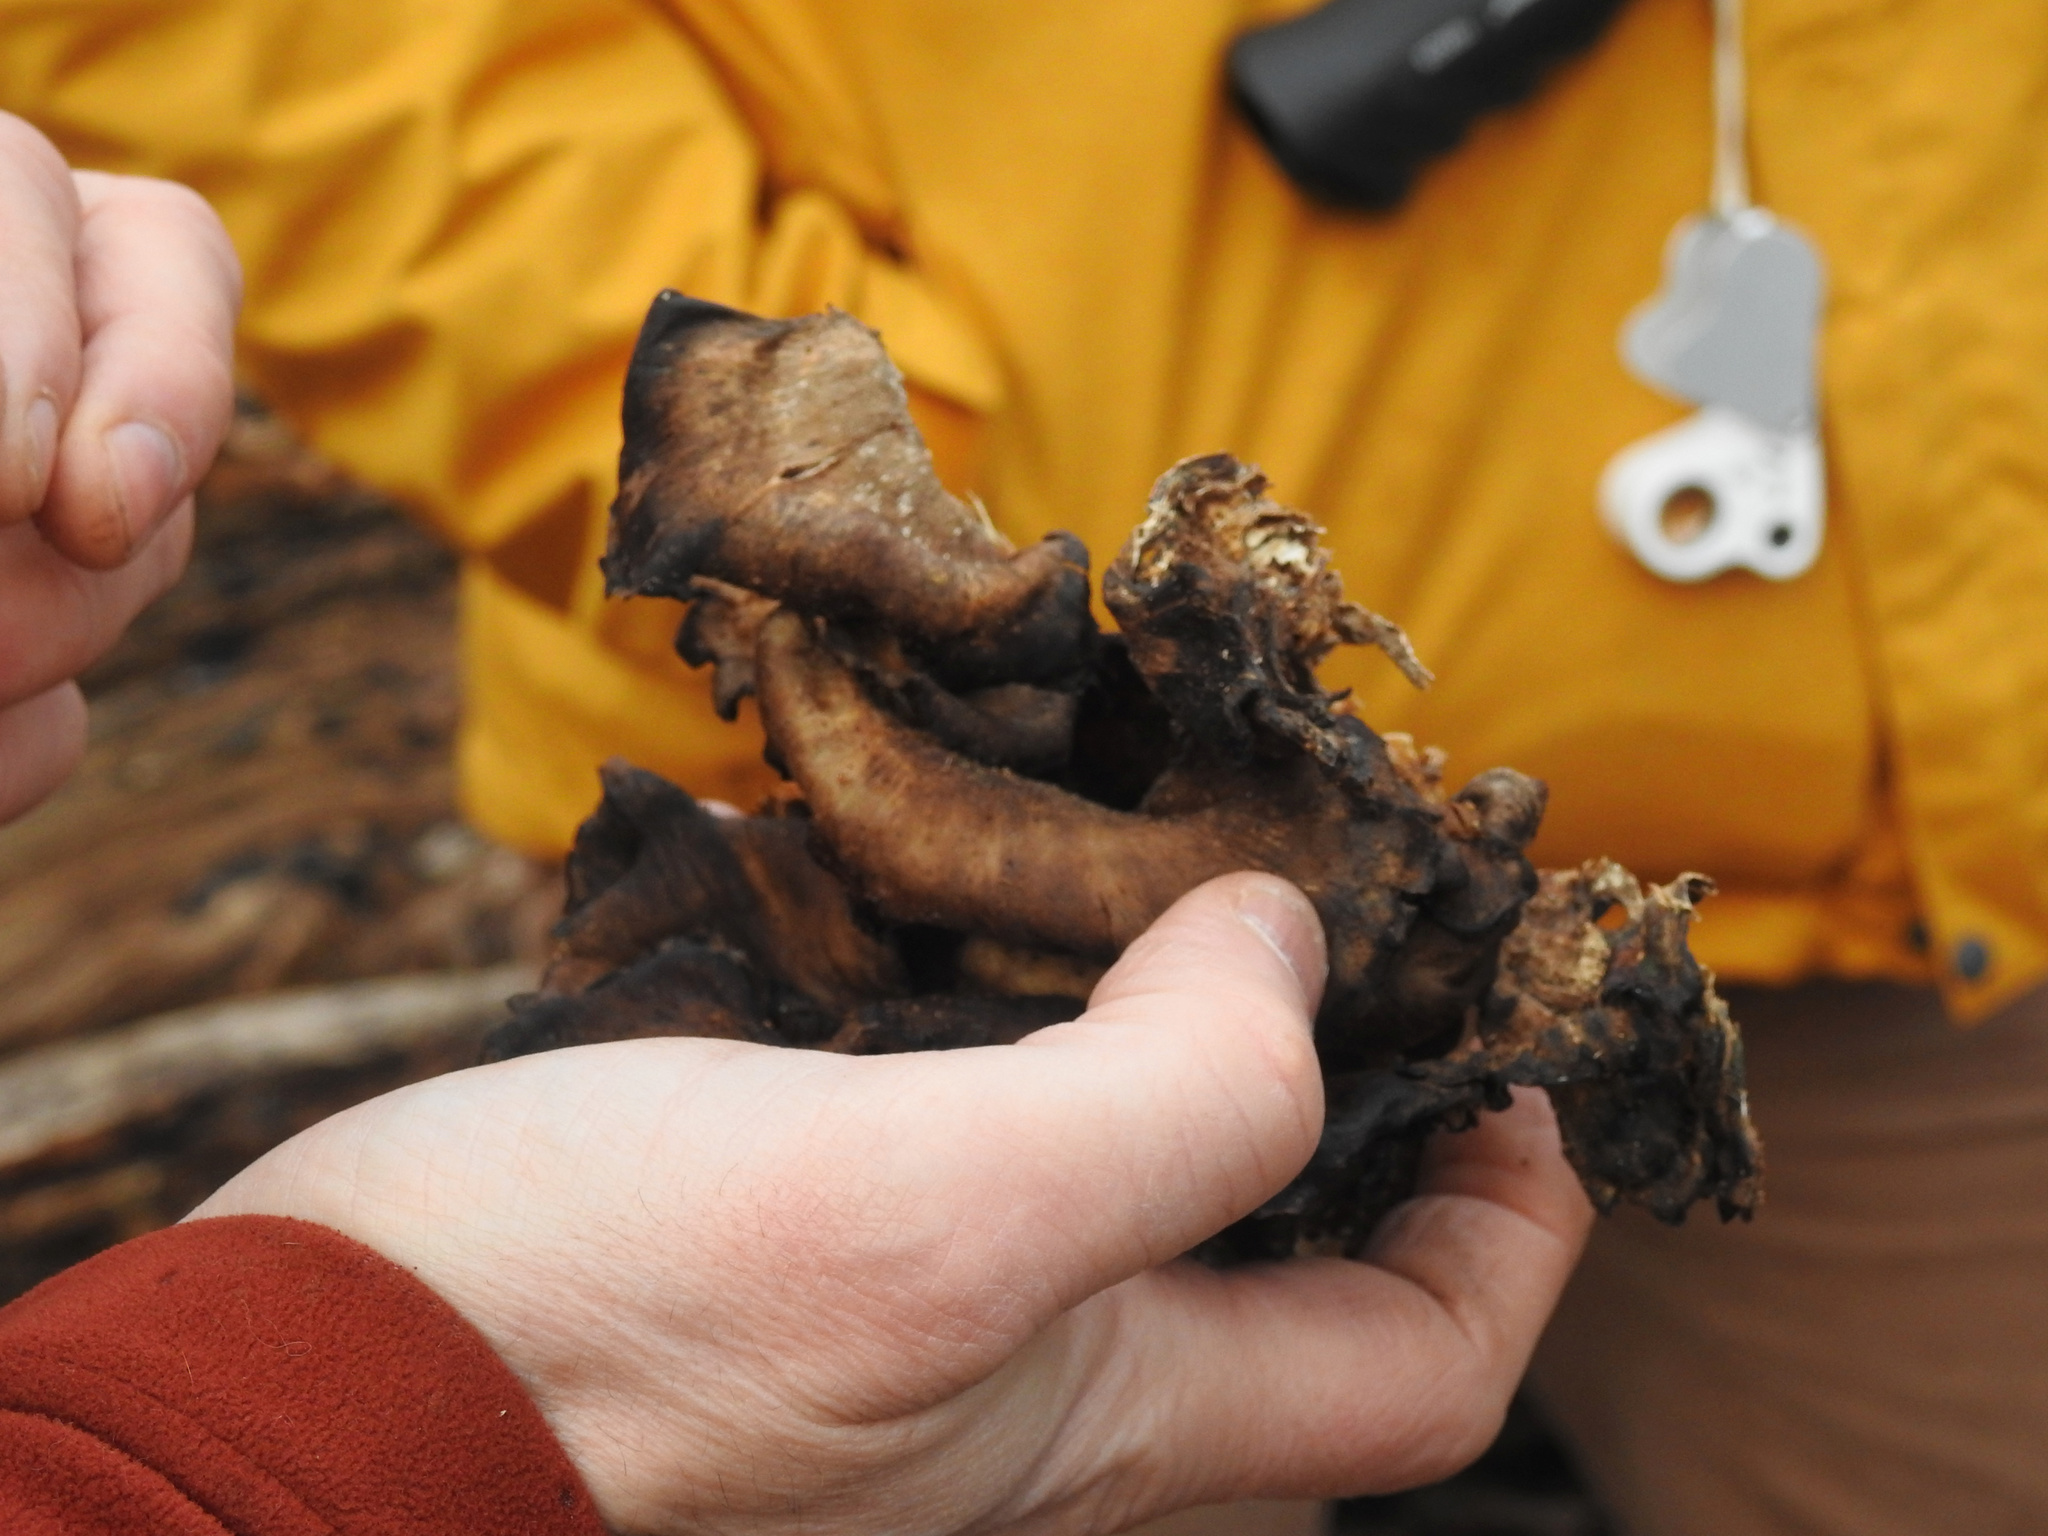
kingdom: Fungi
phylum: Basidiomycota
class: Agaricomycetes
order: Polyporales
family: Meripilaceae
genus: Meripilus
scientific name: Meripilus sumstinei
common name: Black-staining polypore
